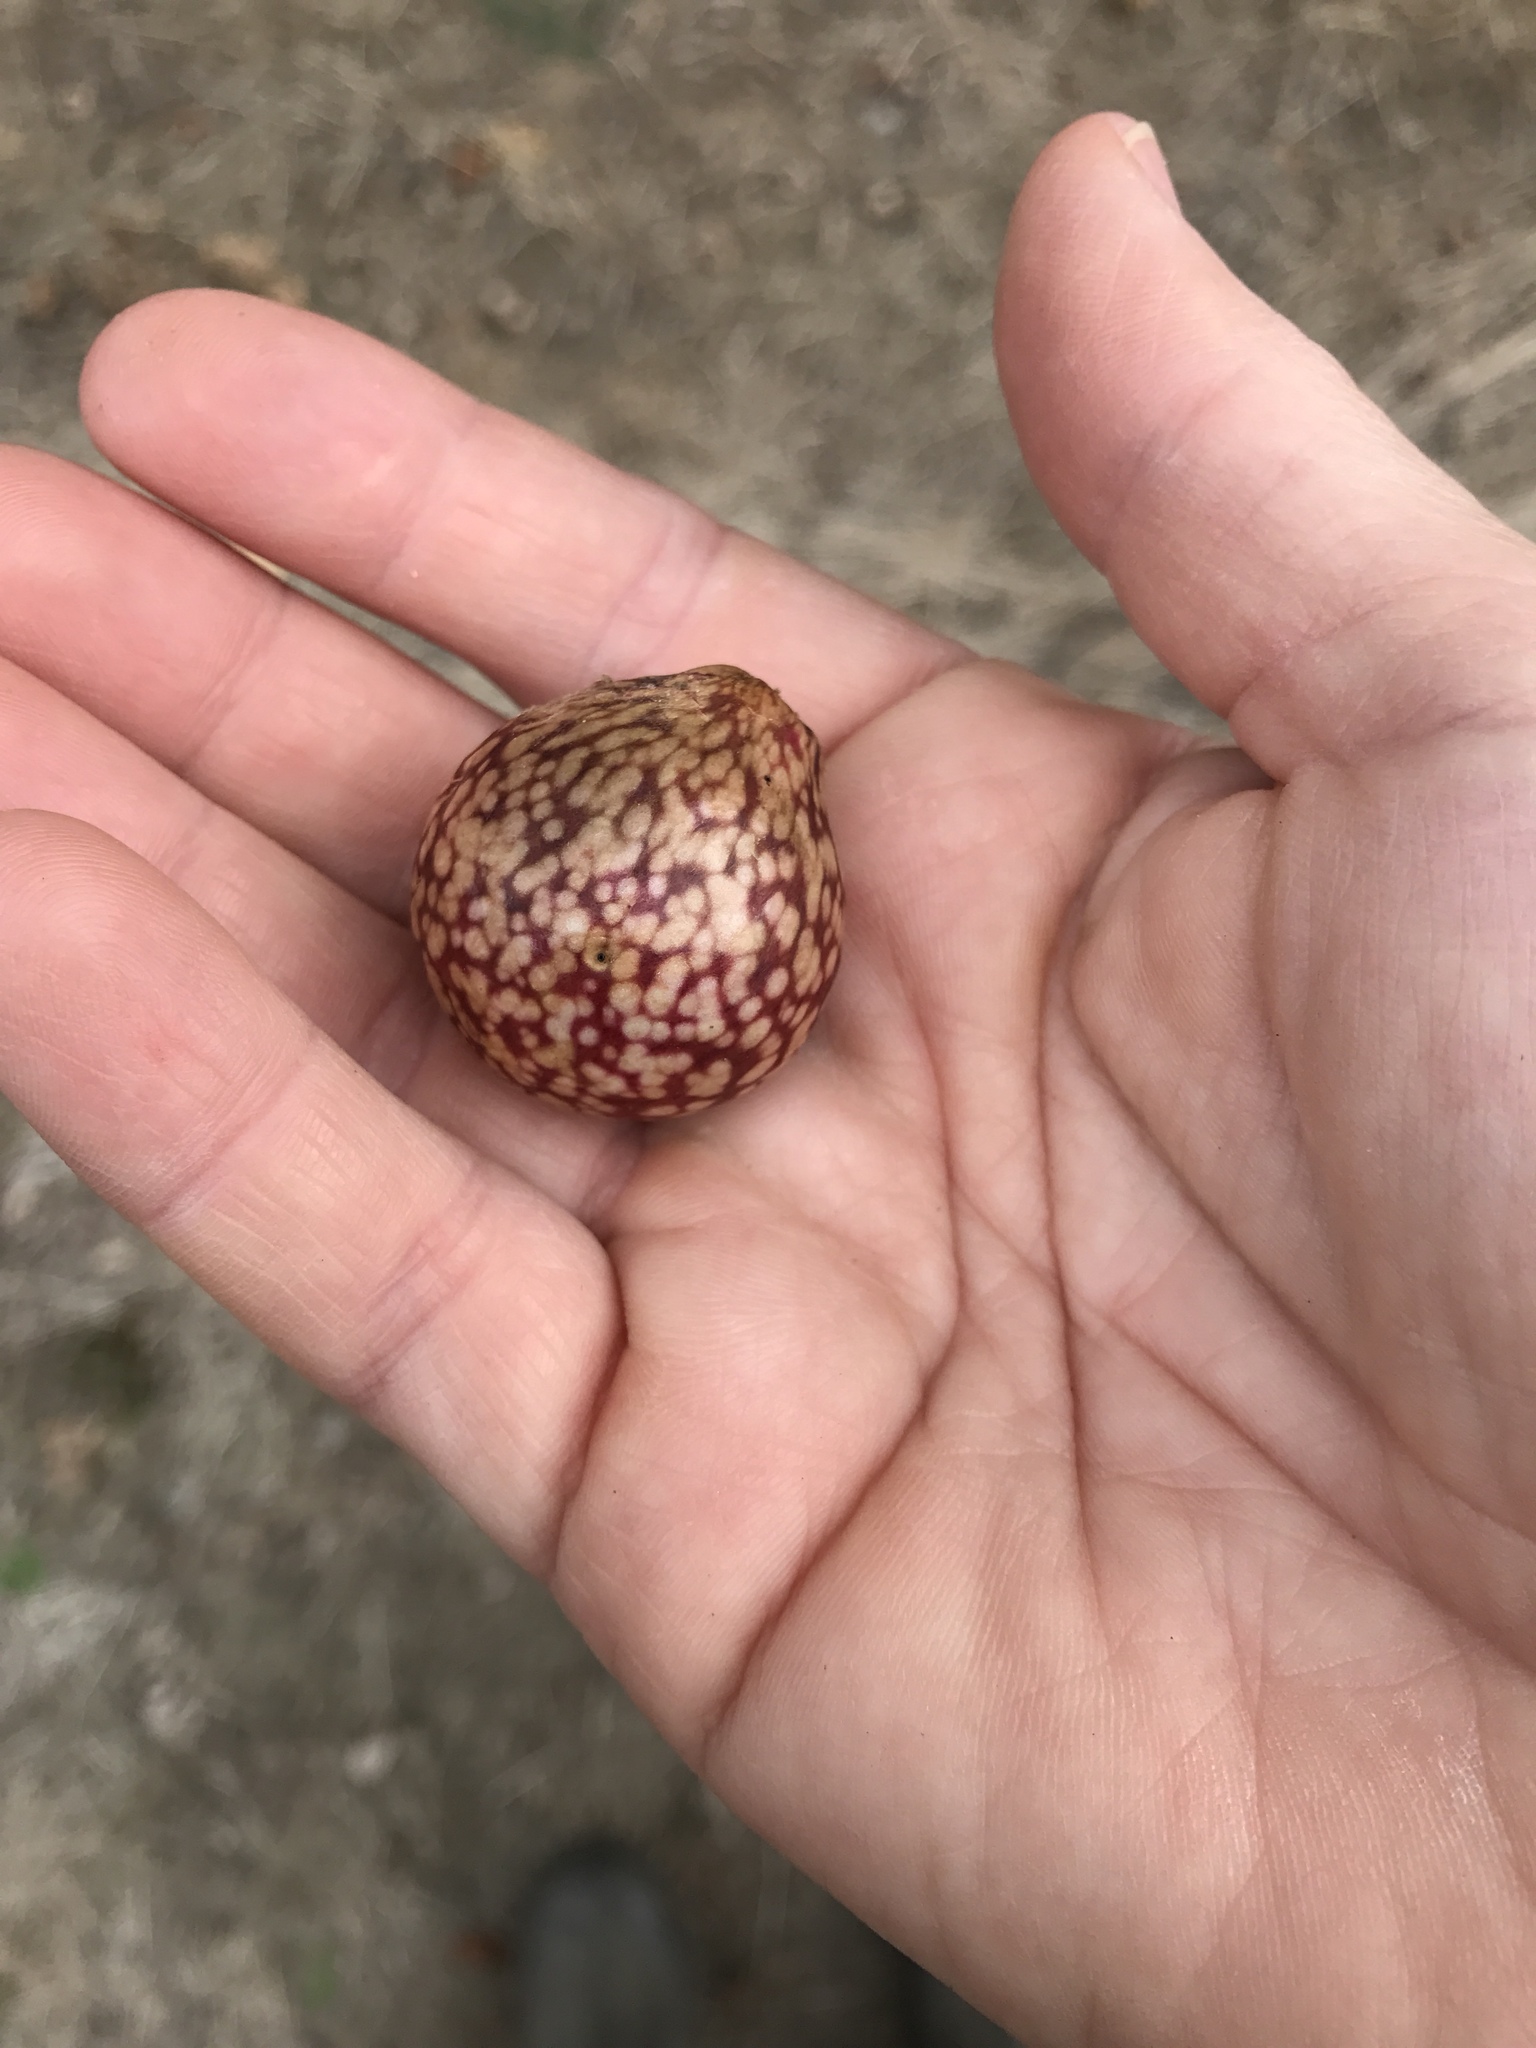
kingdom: Animalia
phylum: Arthropoda
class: Insecta
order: Hymenoptera
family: Cynipidae
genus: Amphibolips
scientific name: Amphibolips
